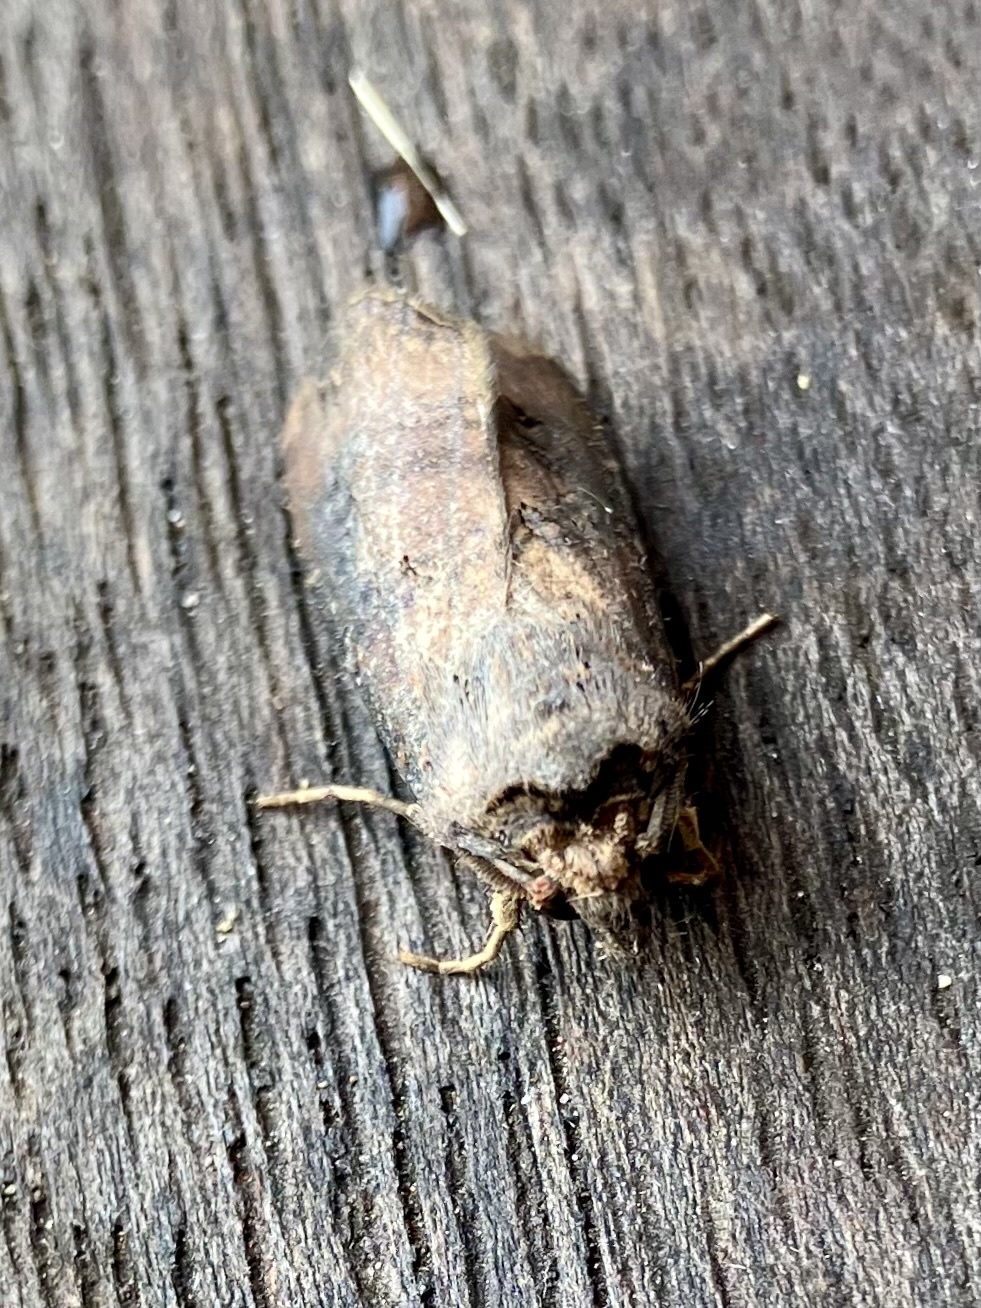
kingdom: Animalia
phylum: Arthropoda
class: Insecta
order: Lepidoptera
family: Noctuidae
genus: Agrotis
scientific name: Agrotis ipsilon
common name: Dark sword-grass
